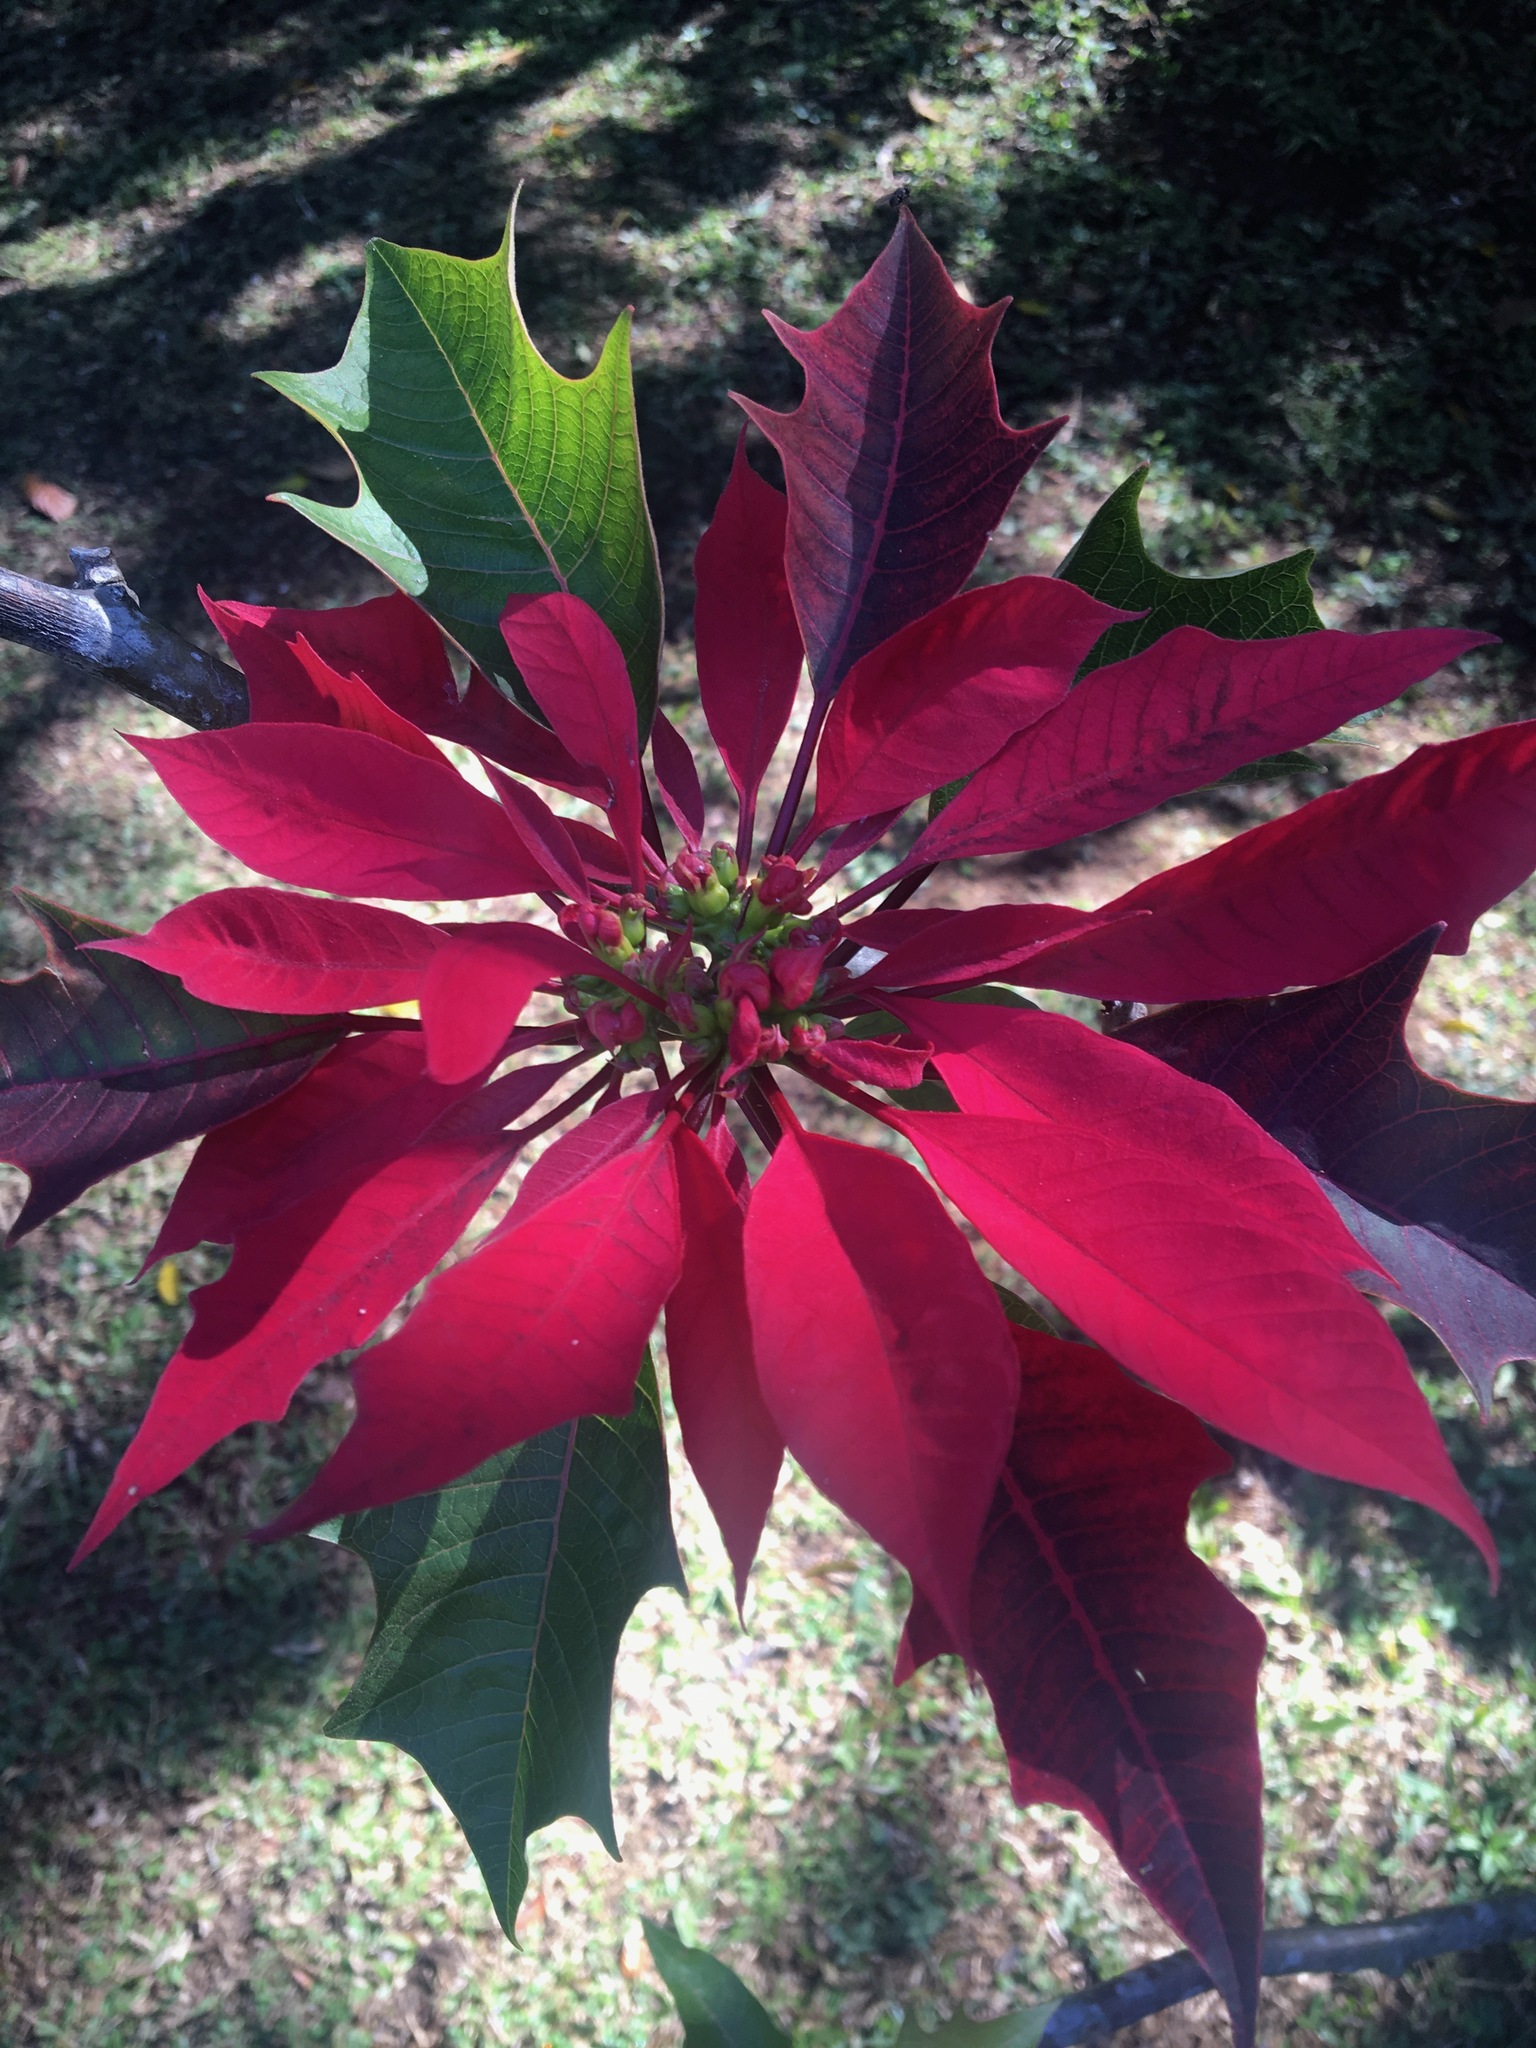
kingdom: Plantae
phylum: Tracheophyta
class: Magnoliopsida
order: Malpighiales
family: Euphorbiaceae
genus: Euphorbia
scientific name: Euphorbia pulcherrima
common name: Christmas-flower
